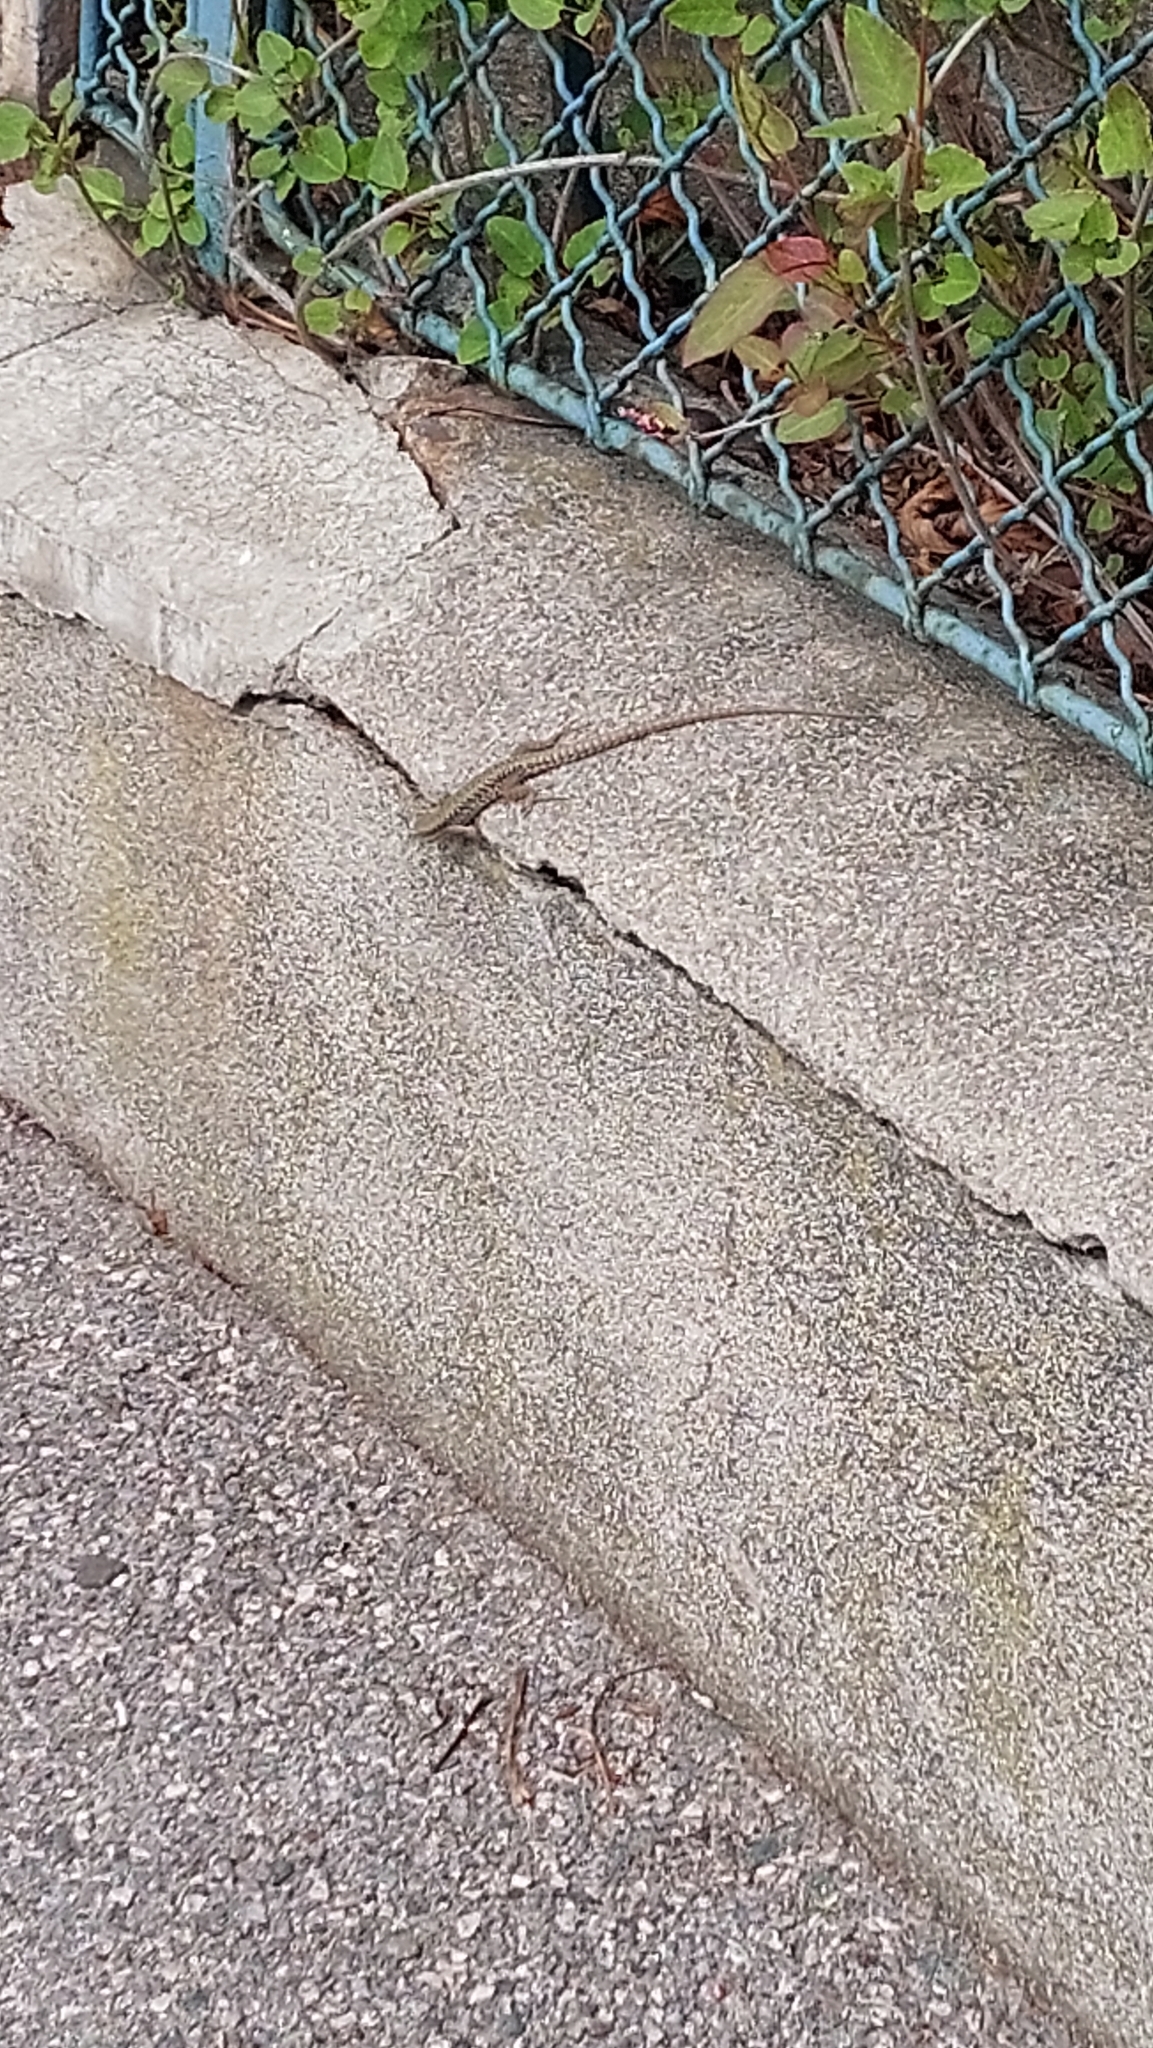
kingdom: Animalia
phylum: Chordata
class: Squamata
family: Lacertidae
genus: Podarcis
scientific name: Podarcis muralis
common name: Common wall lizard
